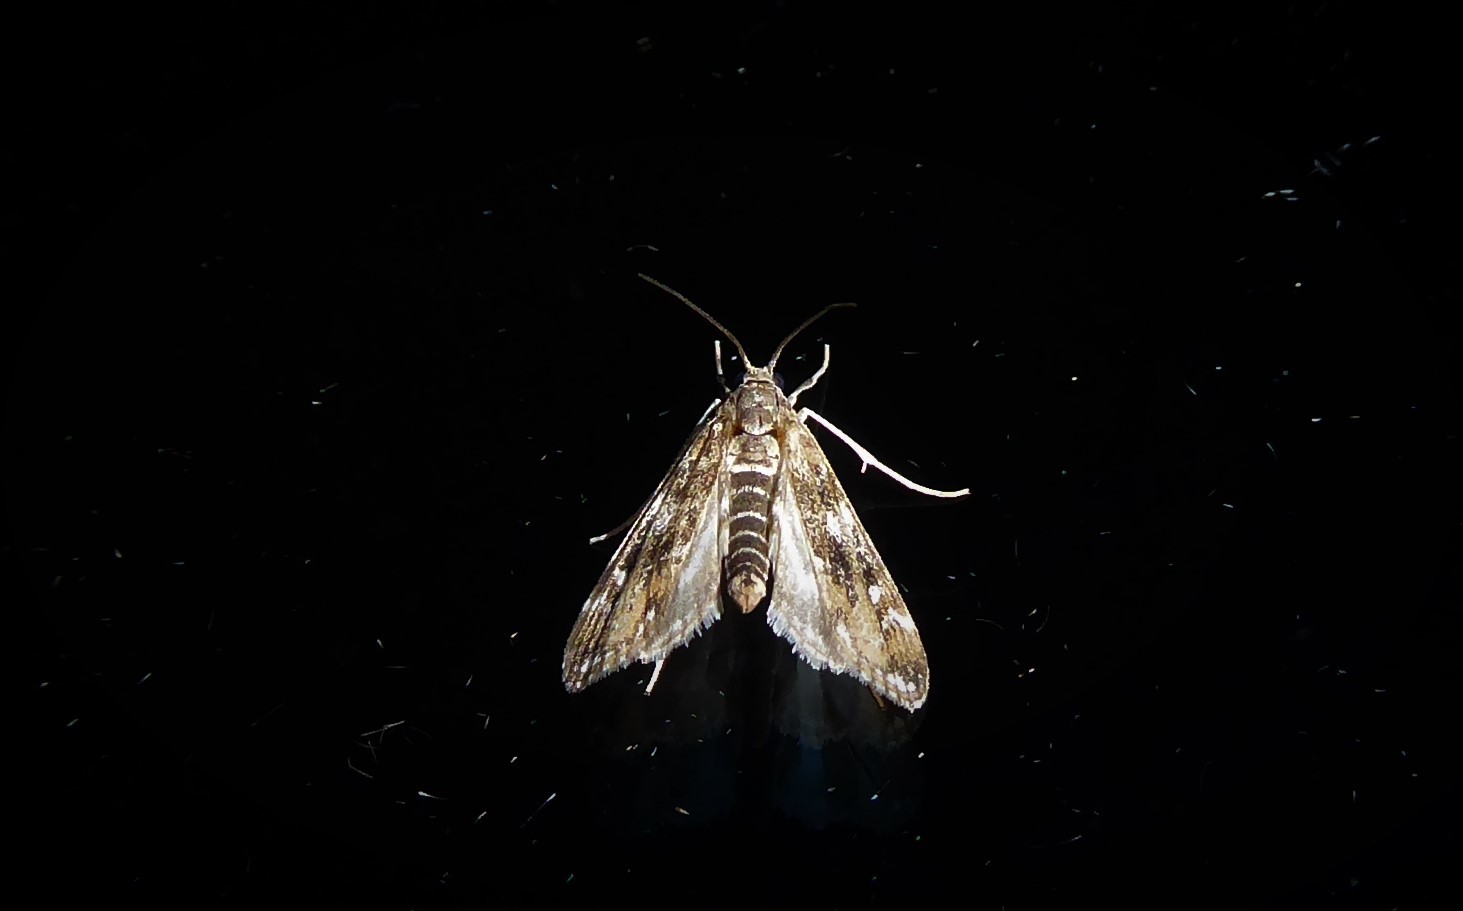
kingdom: Animalia
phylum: Arthropoda
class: Insecta
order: Lepidoptera
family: Crambidae
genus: Hygraula
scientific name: Hygraula nitens
